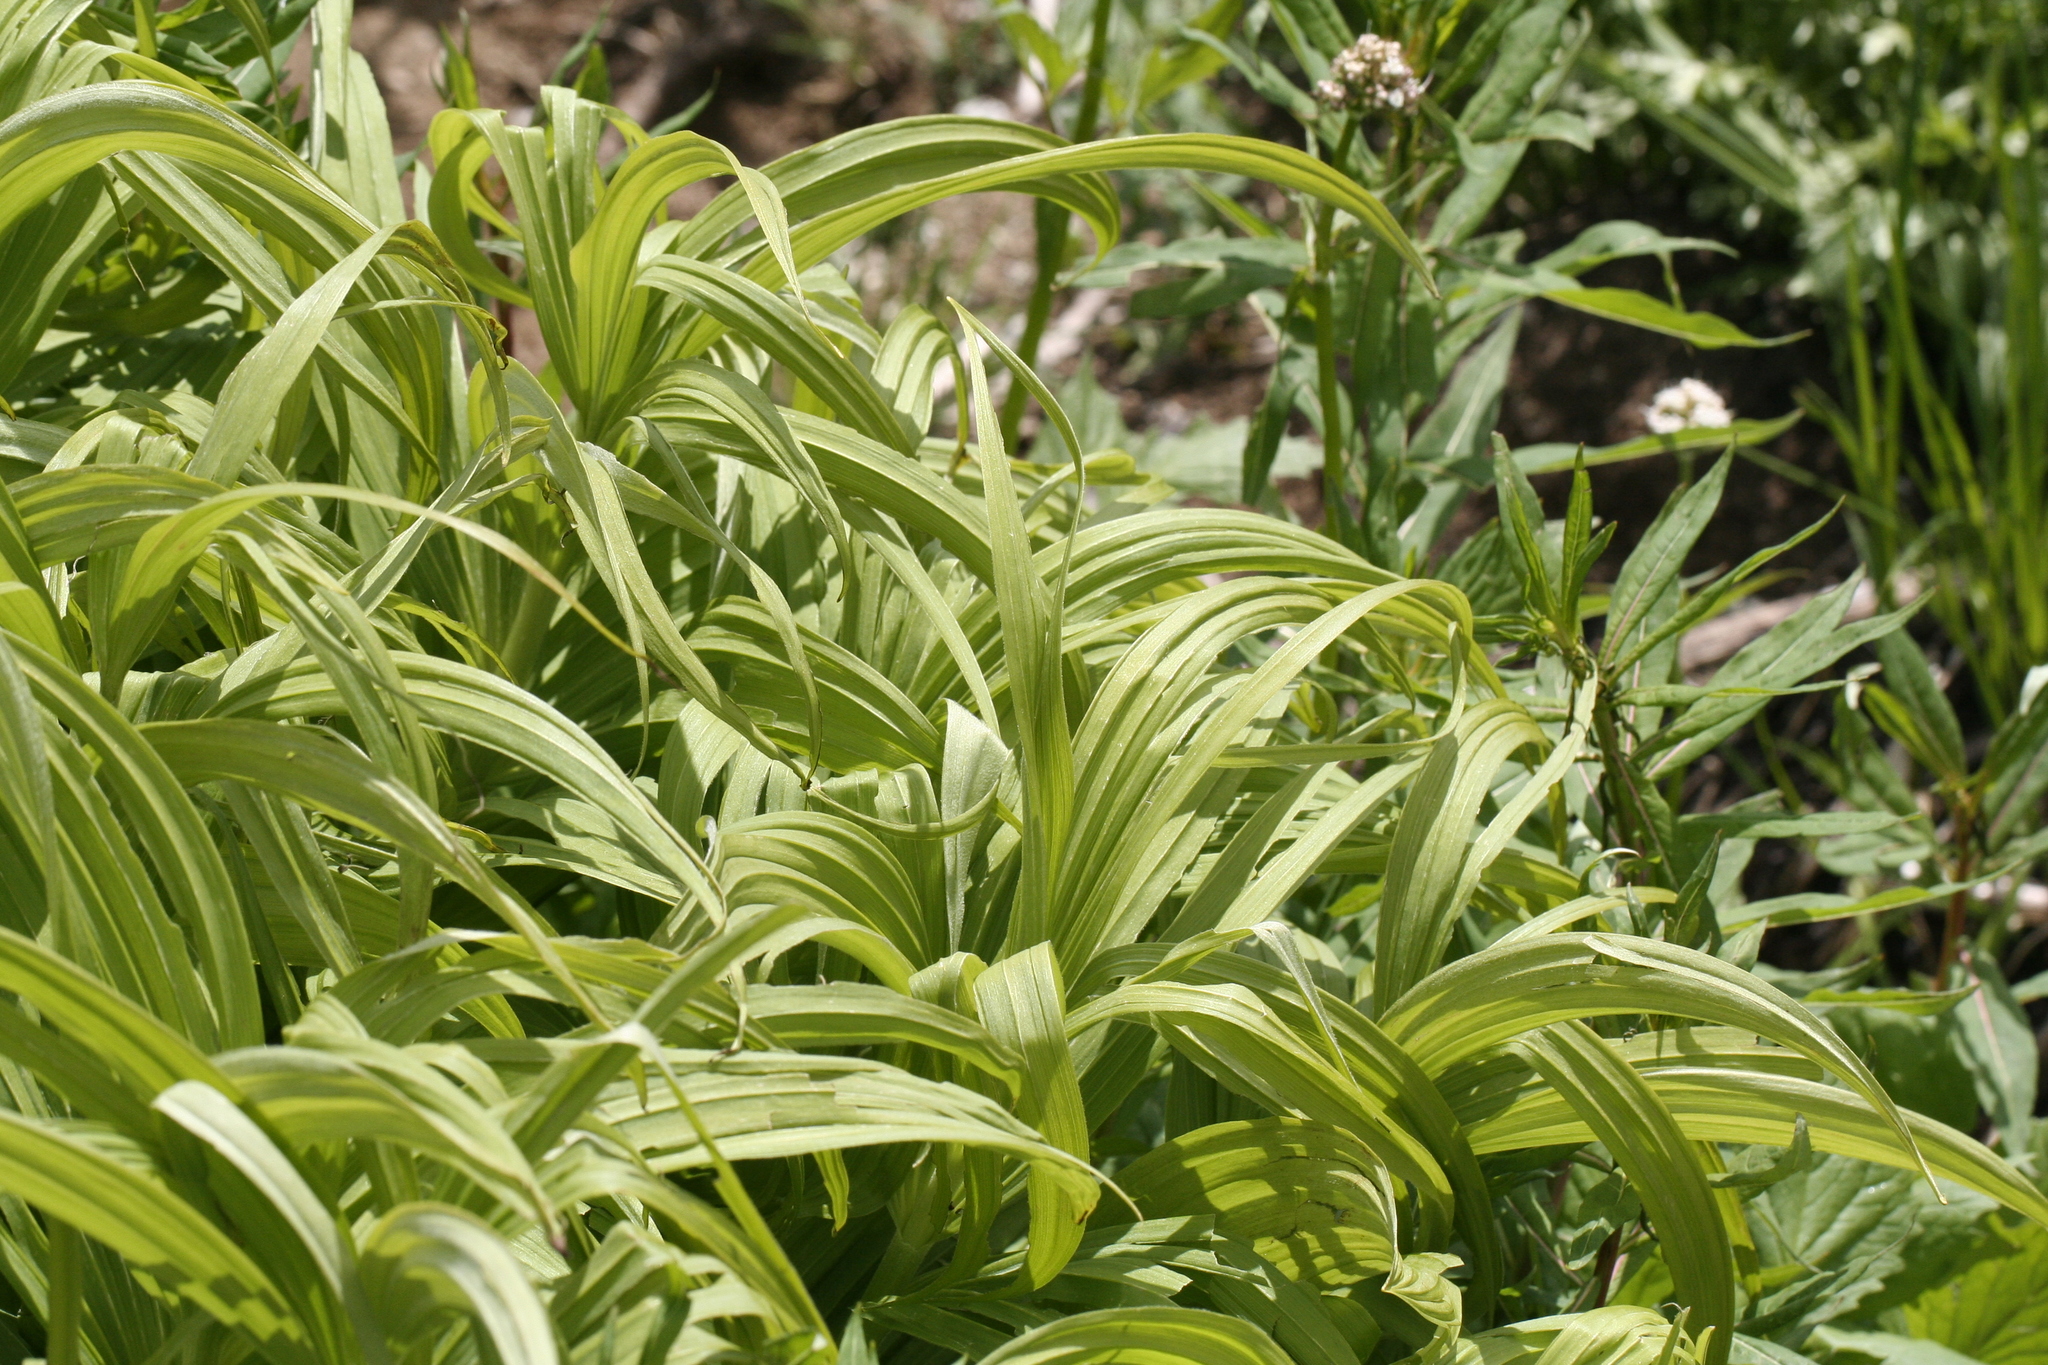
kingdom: Plantae
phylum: Tracheophyta
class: Liliopsida
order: Liliales
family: Melanthiaceae
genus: Veratrum
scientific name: Veratrum viride
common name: American false hellebore
